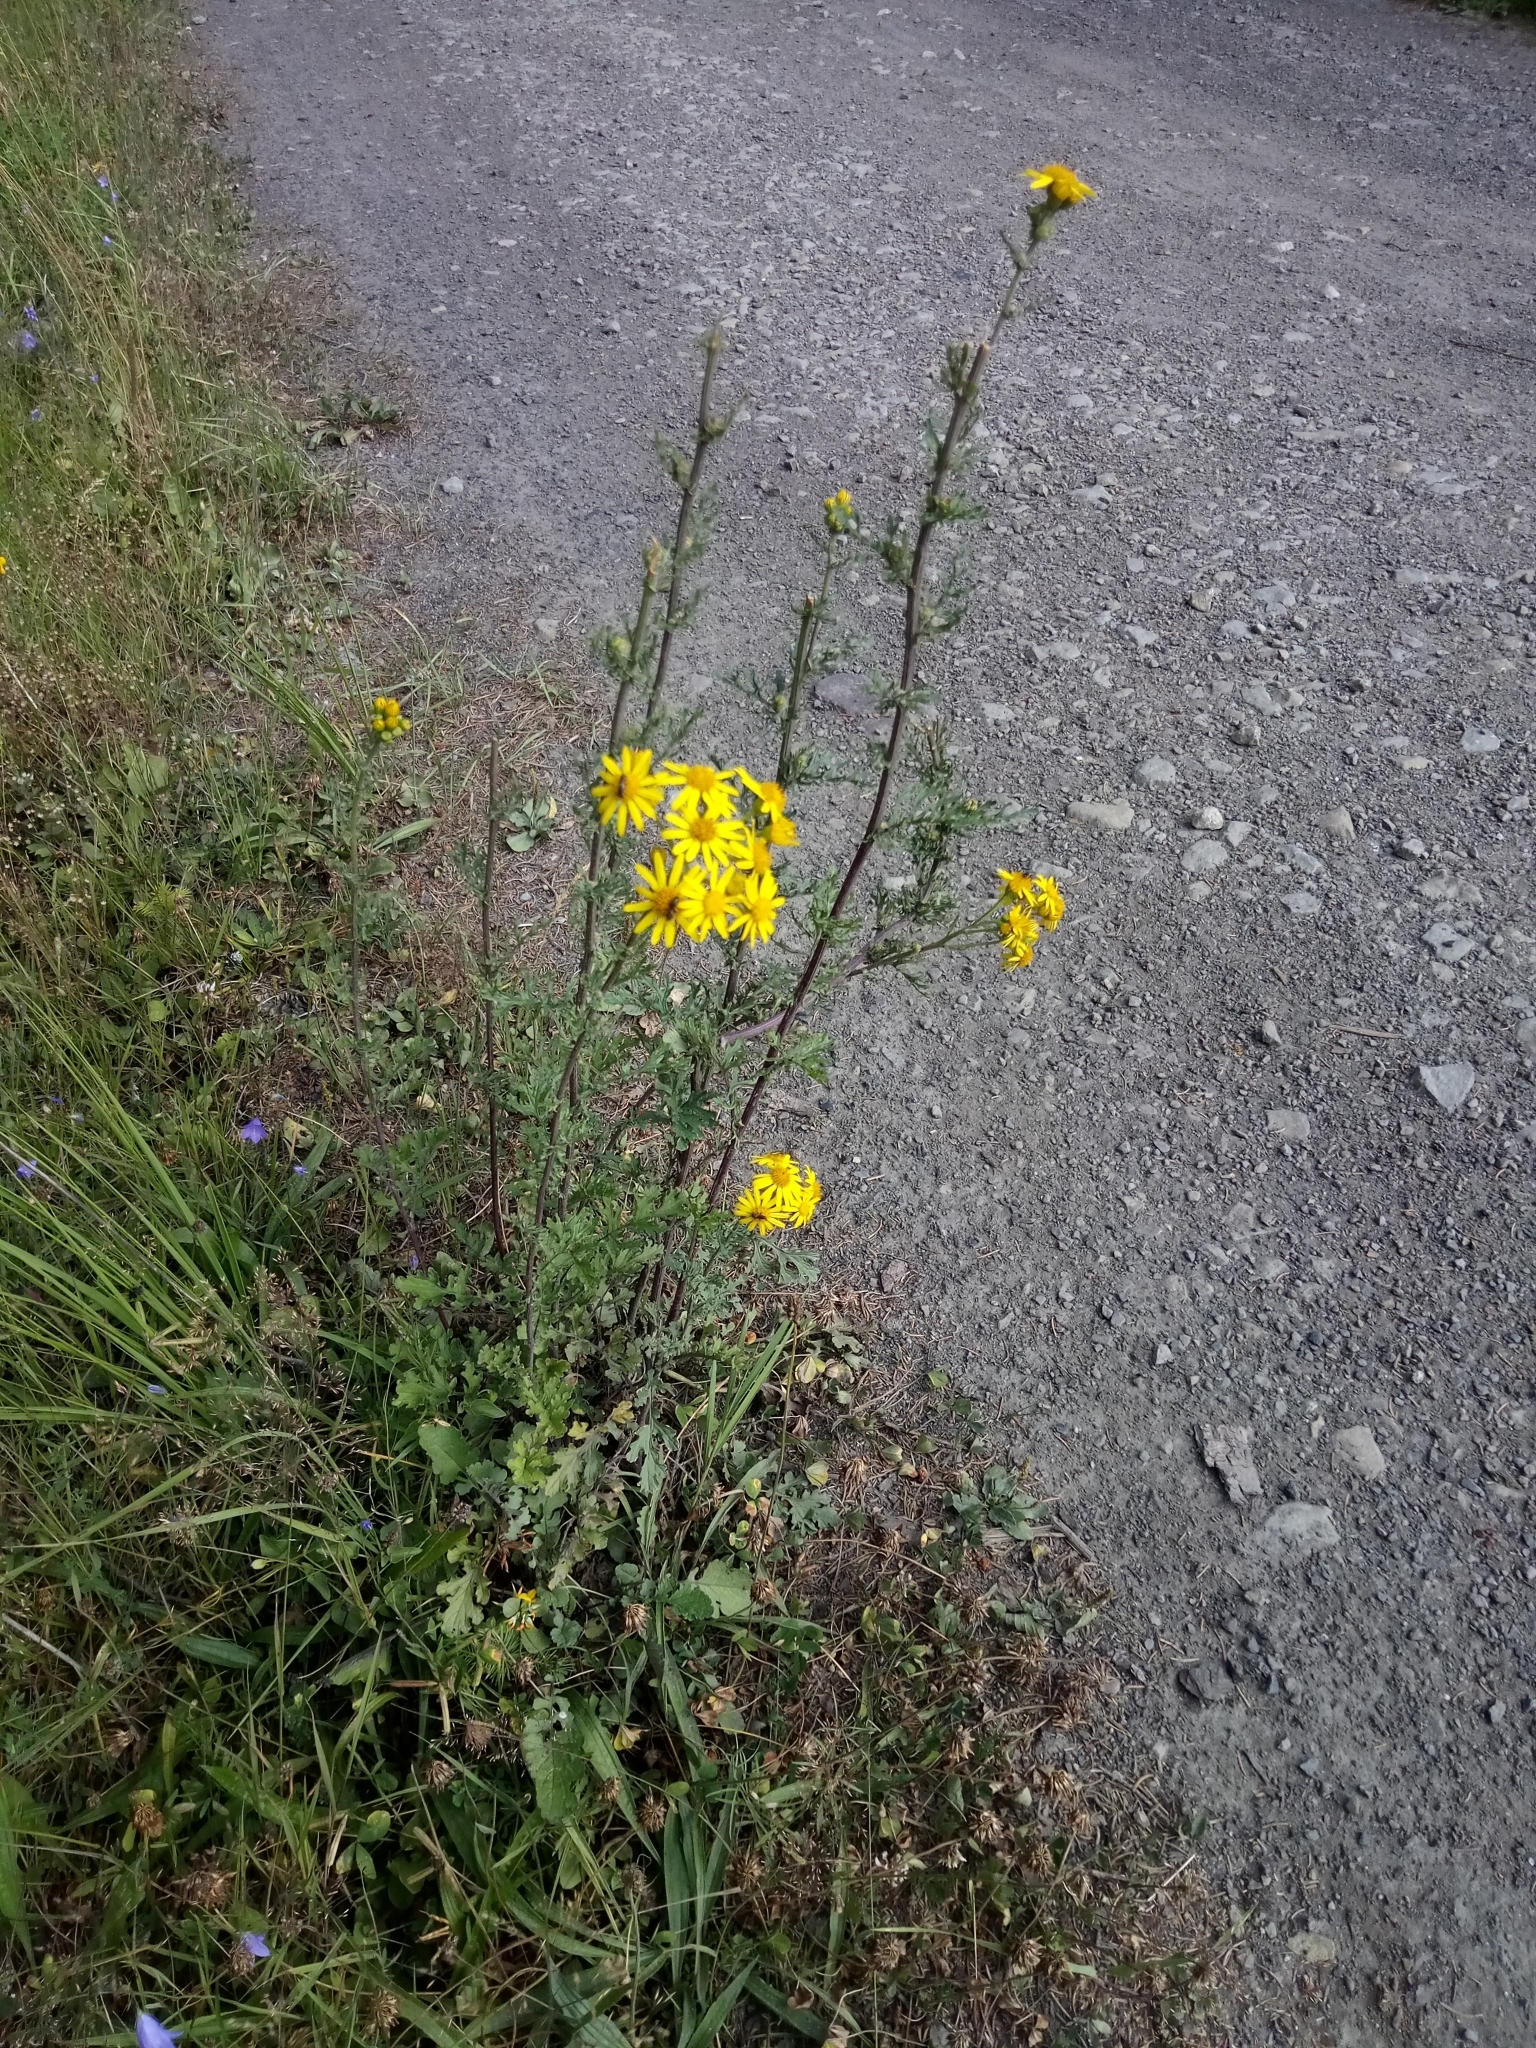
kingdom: Plantae
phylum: Tracheophyta
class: Magnoliopsida
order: Asterales
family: Asteraceae
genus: Jacobaea
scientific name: Jacobaea vulgaris
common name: Stinking willie
